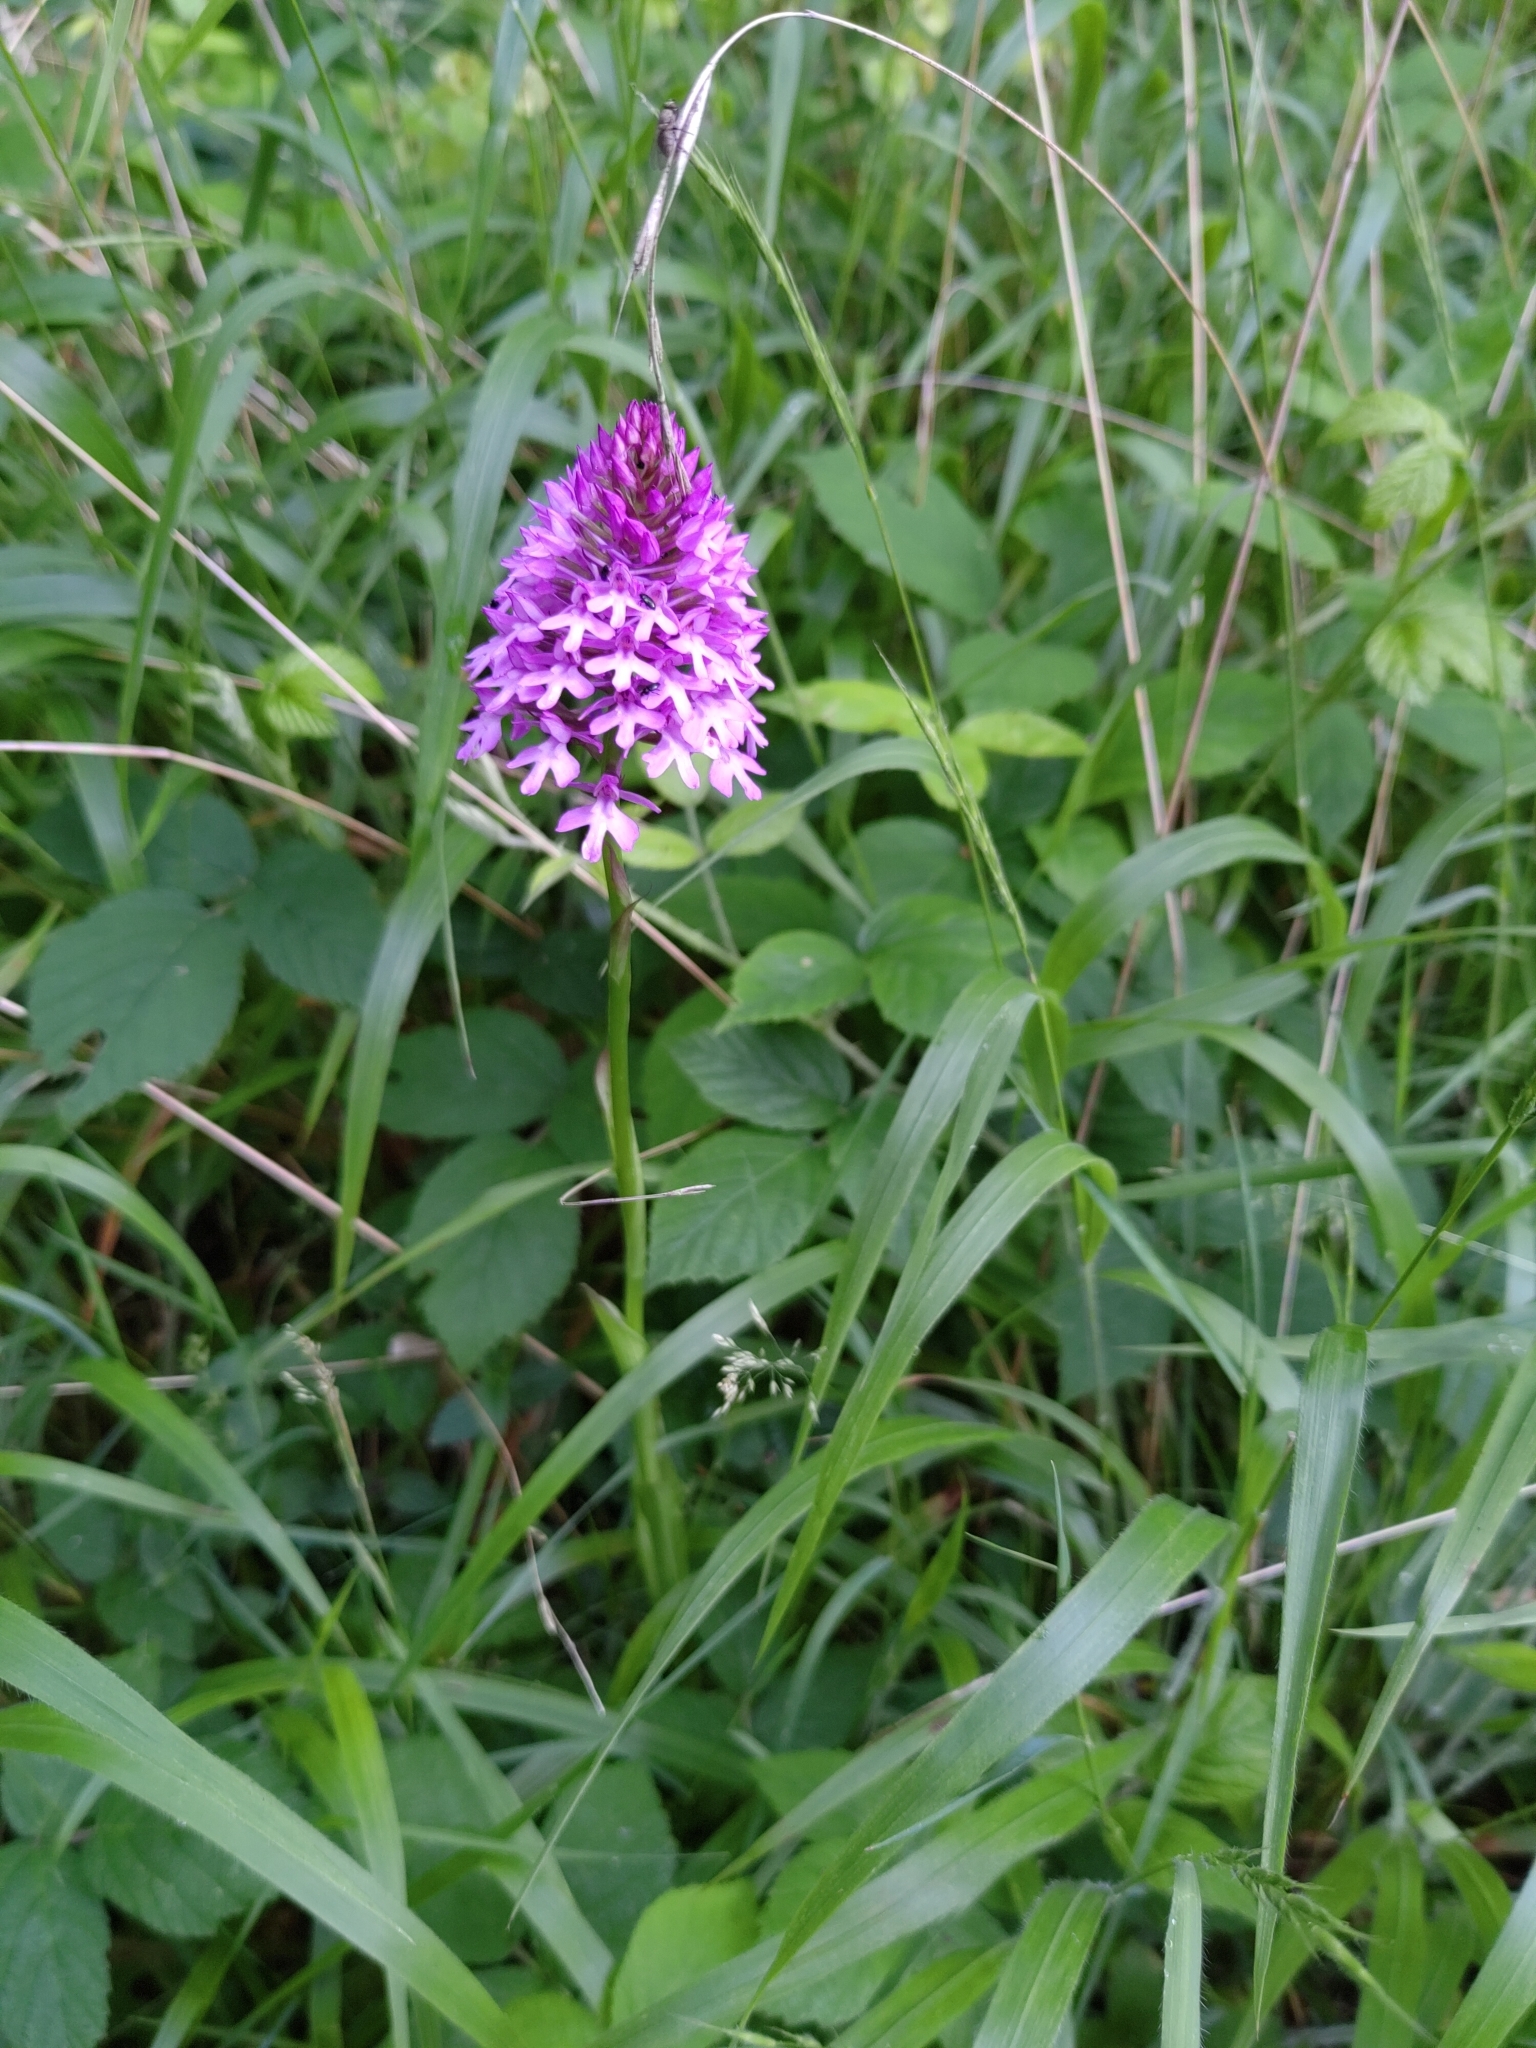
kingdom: Plantae
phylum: Tracheophyta
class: Liliopsida
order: Asparagales
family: Orchidaceae
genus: Anacamptis
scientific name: Anacamptis pyramidalis
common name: Pyramidal orchid
